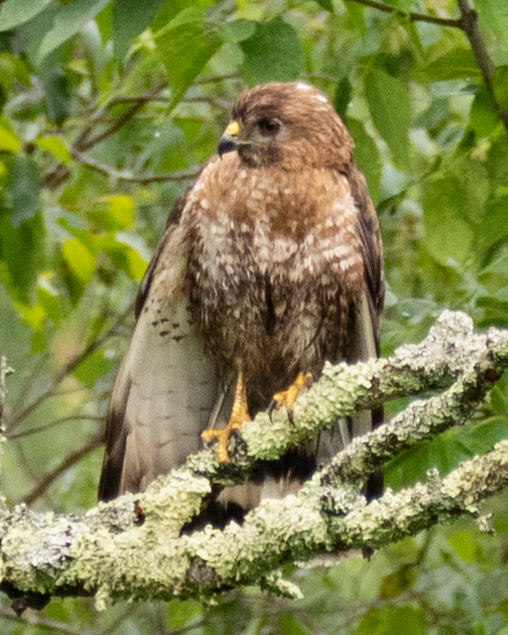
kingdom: Animalia
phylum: Chordata
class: Aves
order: Accipitriformes
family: Accipitridae
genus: Buteo
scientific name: Buteo platypterus
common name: Broad-winged hawk
